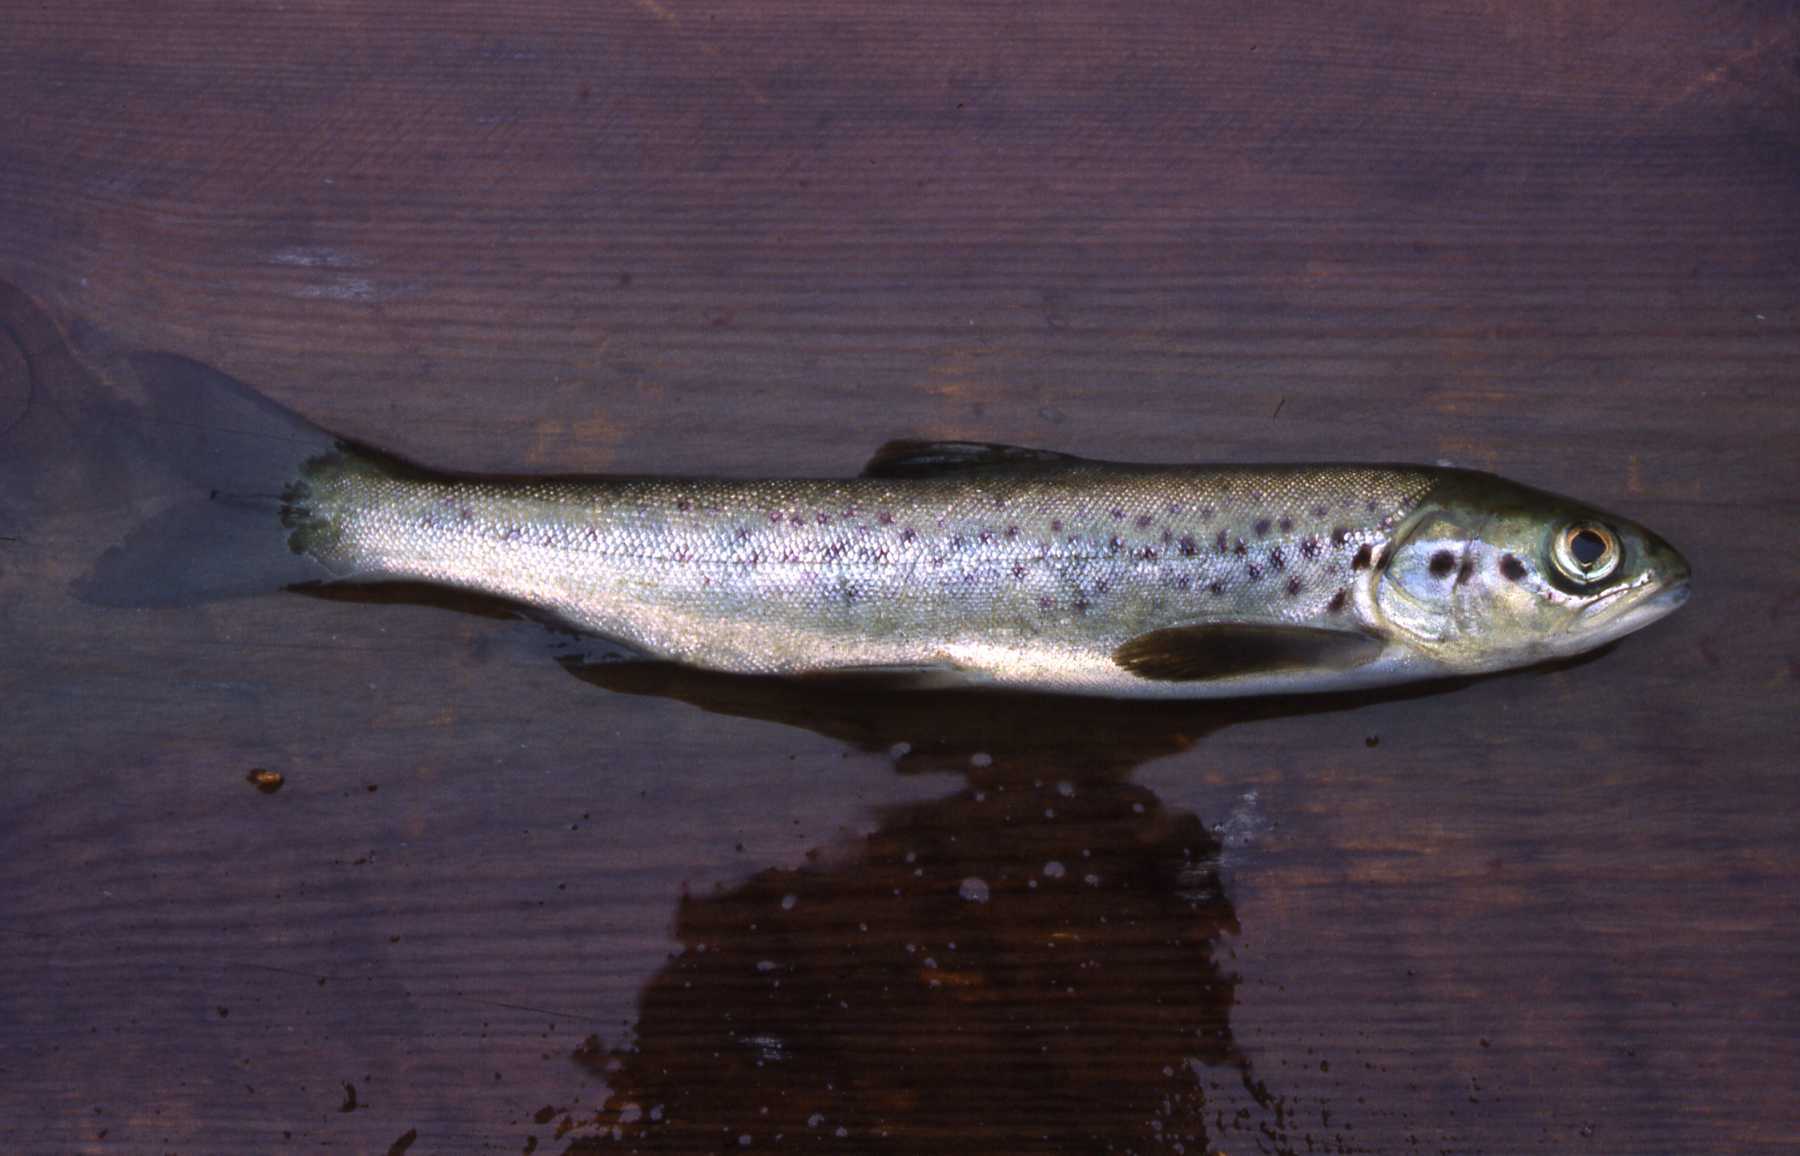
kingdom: Animalia
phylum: Chordata
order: Salmoniformes
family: Salmonidae
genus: Salmo
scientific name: Salmo salar
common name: Atlantic salmon
